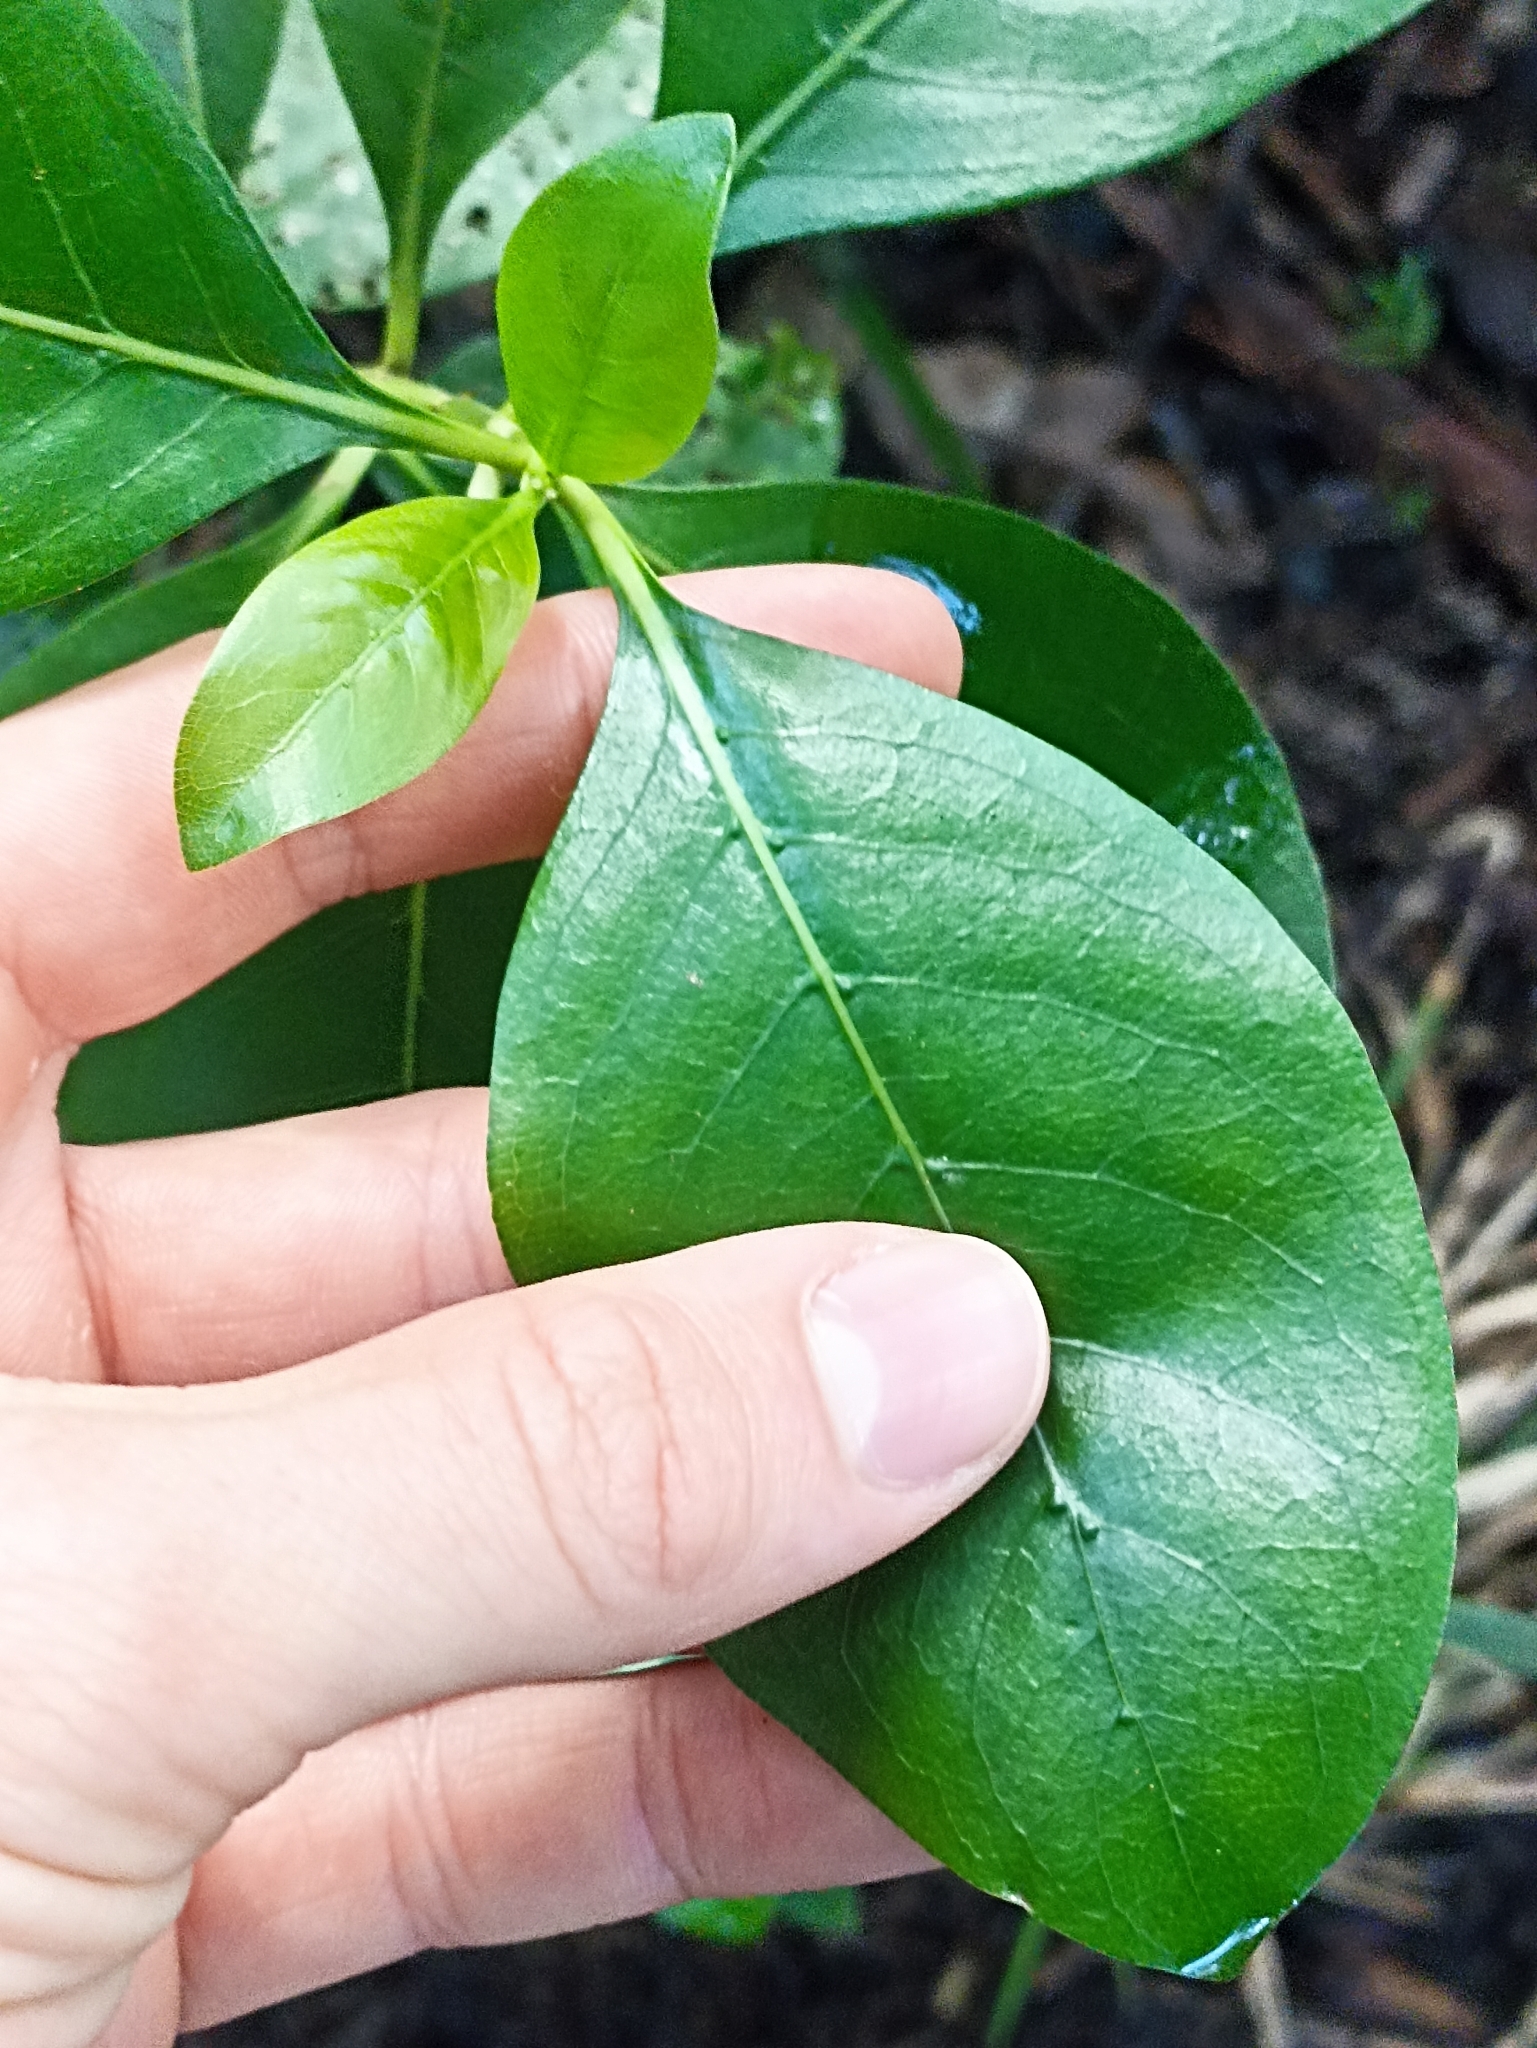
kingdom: Plantae
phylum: Tracheophyta
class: Magnoliopsida
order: Gentianales
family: Rubiaceae
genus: Coprosma
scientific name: Coprosma macrocarpa
